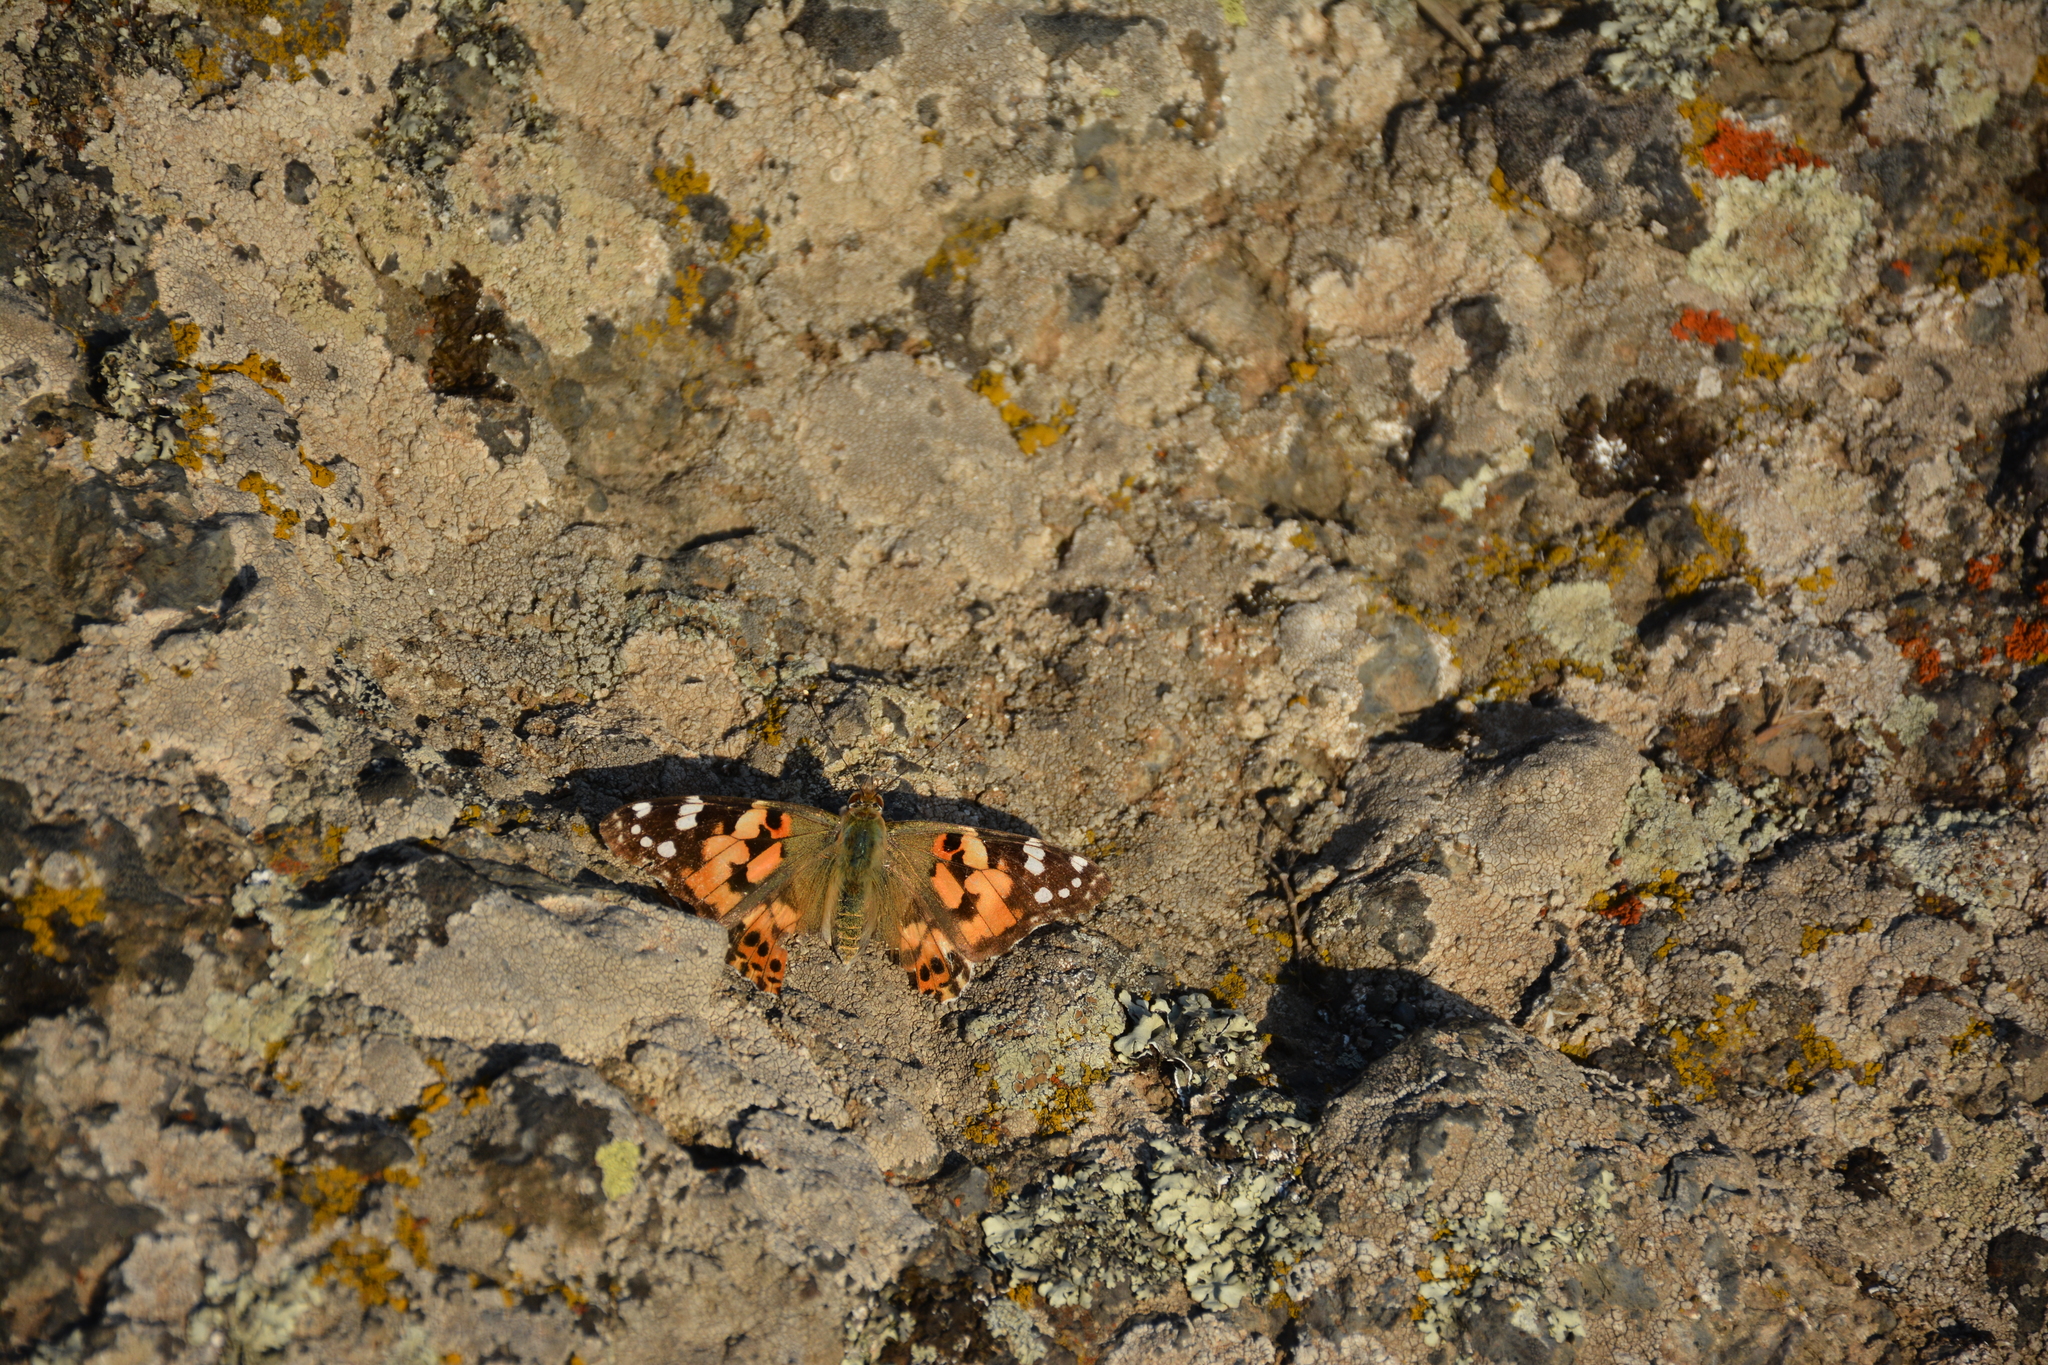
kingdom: Animalia
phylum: Arthropoda
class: Insecta
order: Lepidoptera
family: Nymphalidae
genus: Vanessa
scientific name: Vanessa cardui
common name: Painted lady
